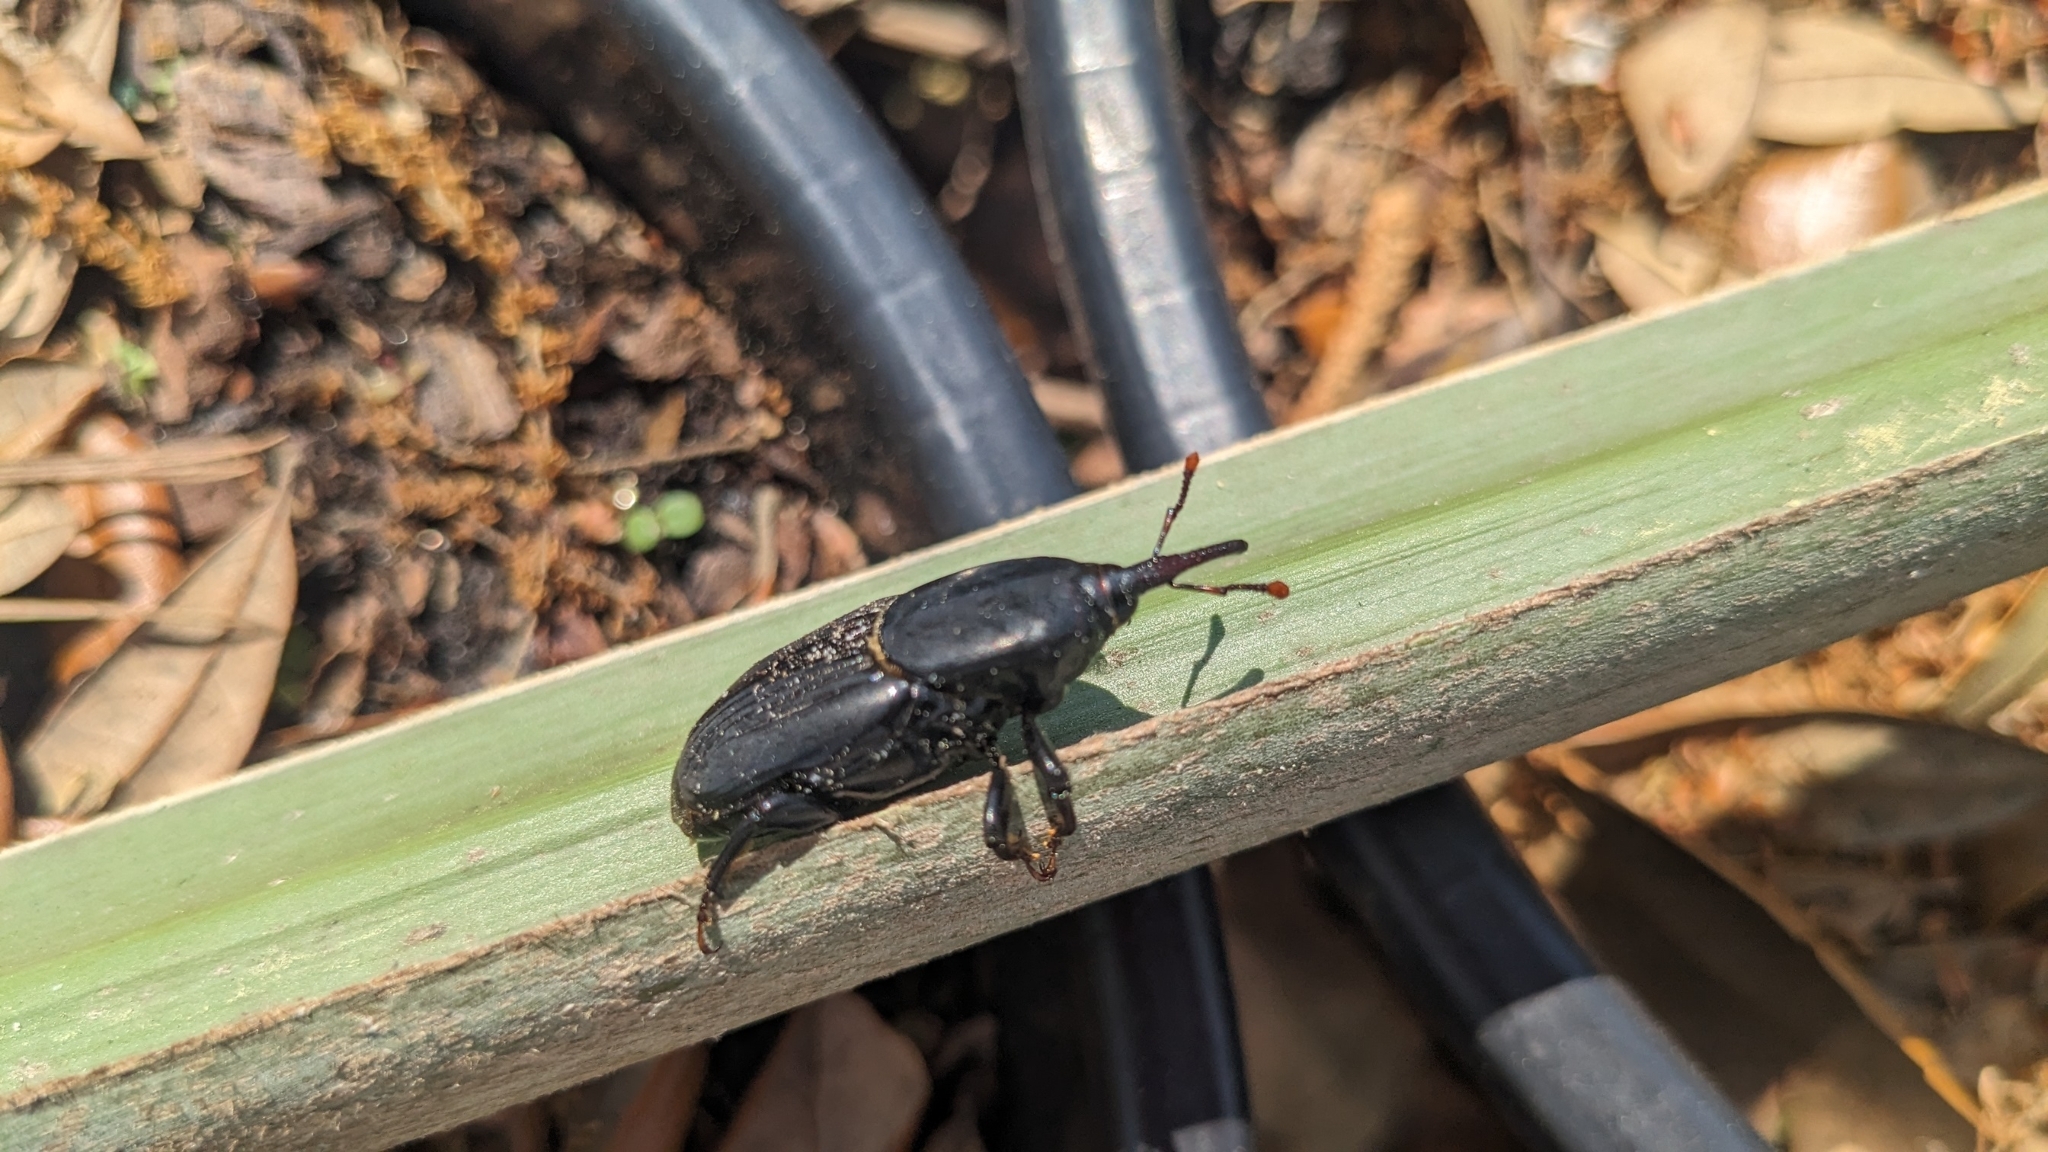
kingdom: Animalia
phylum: Arthropoda
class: Insecta
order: Coleoptera
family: Dryophthoridae
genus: Rhynchophorus
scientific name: Rhynchophorus cruentatus
